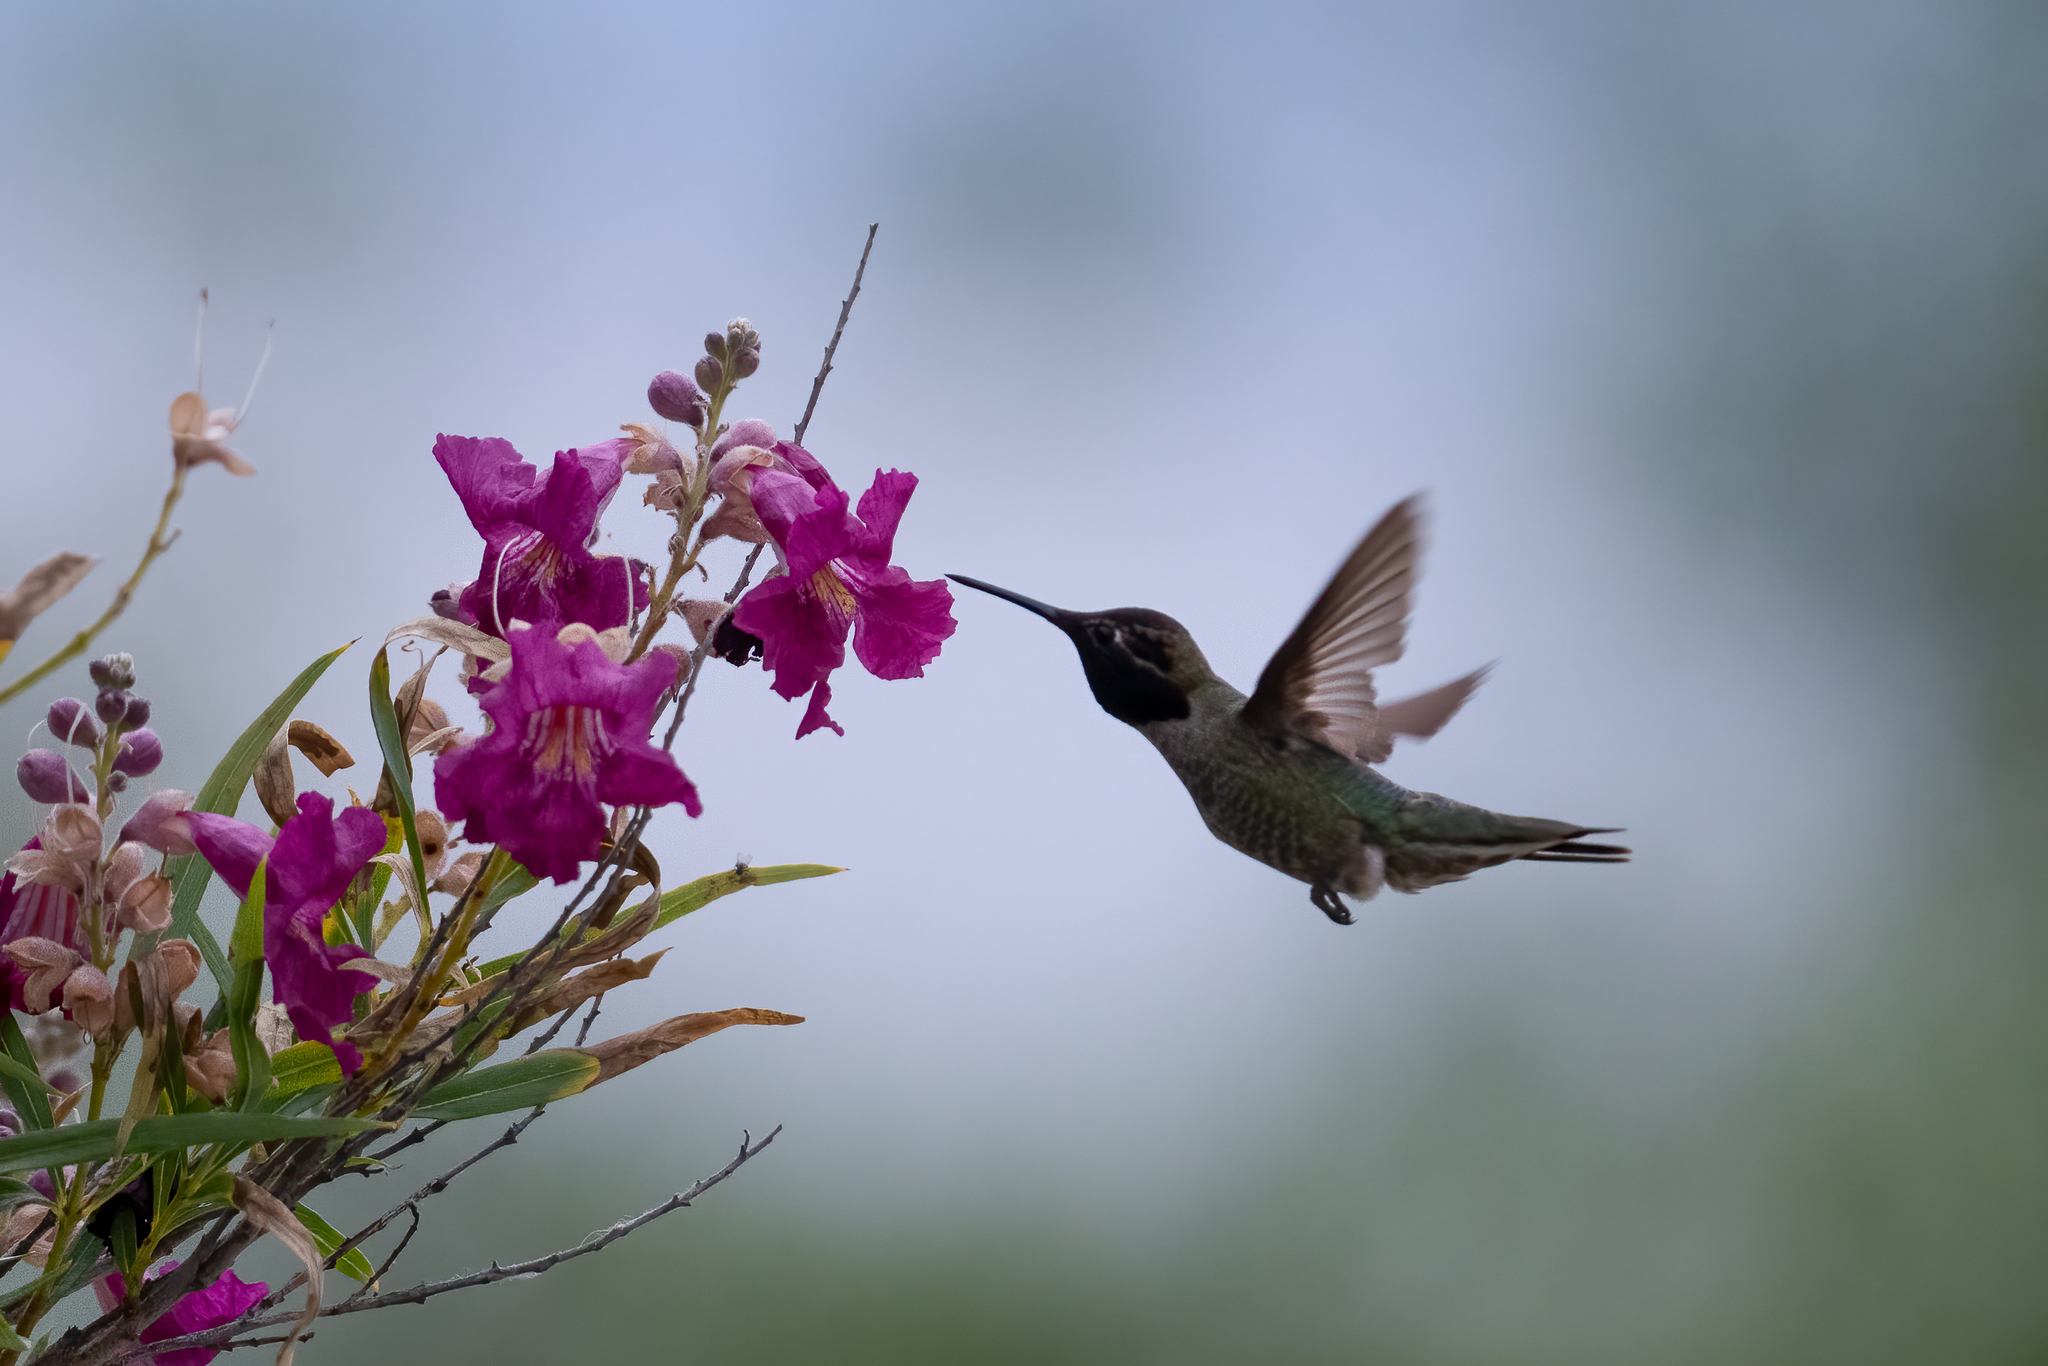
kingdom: Animalia
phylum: Chordata
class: Aves
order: Apodiformes
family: Trochilidae
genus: Calypte
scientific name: Calypte anna
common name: Anna's hummingbird
